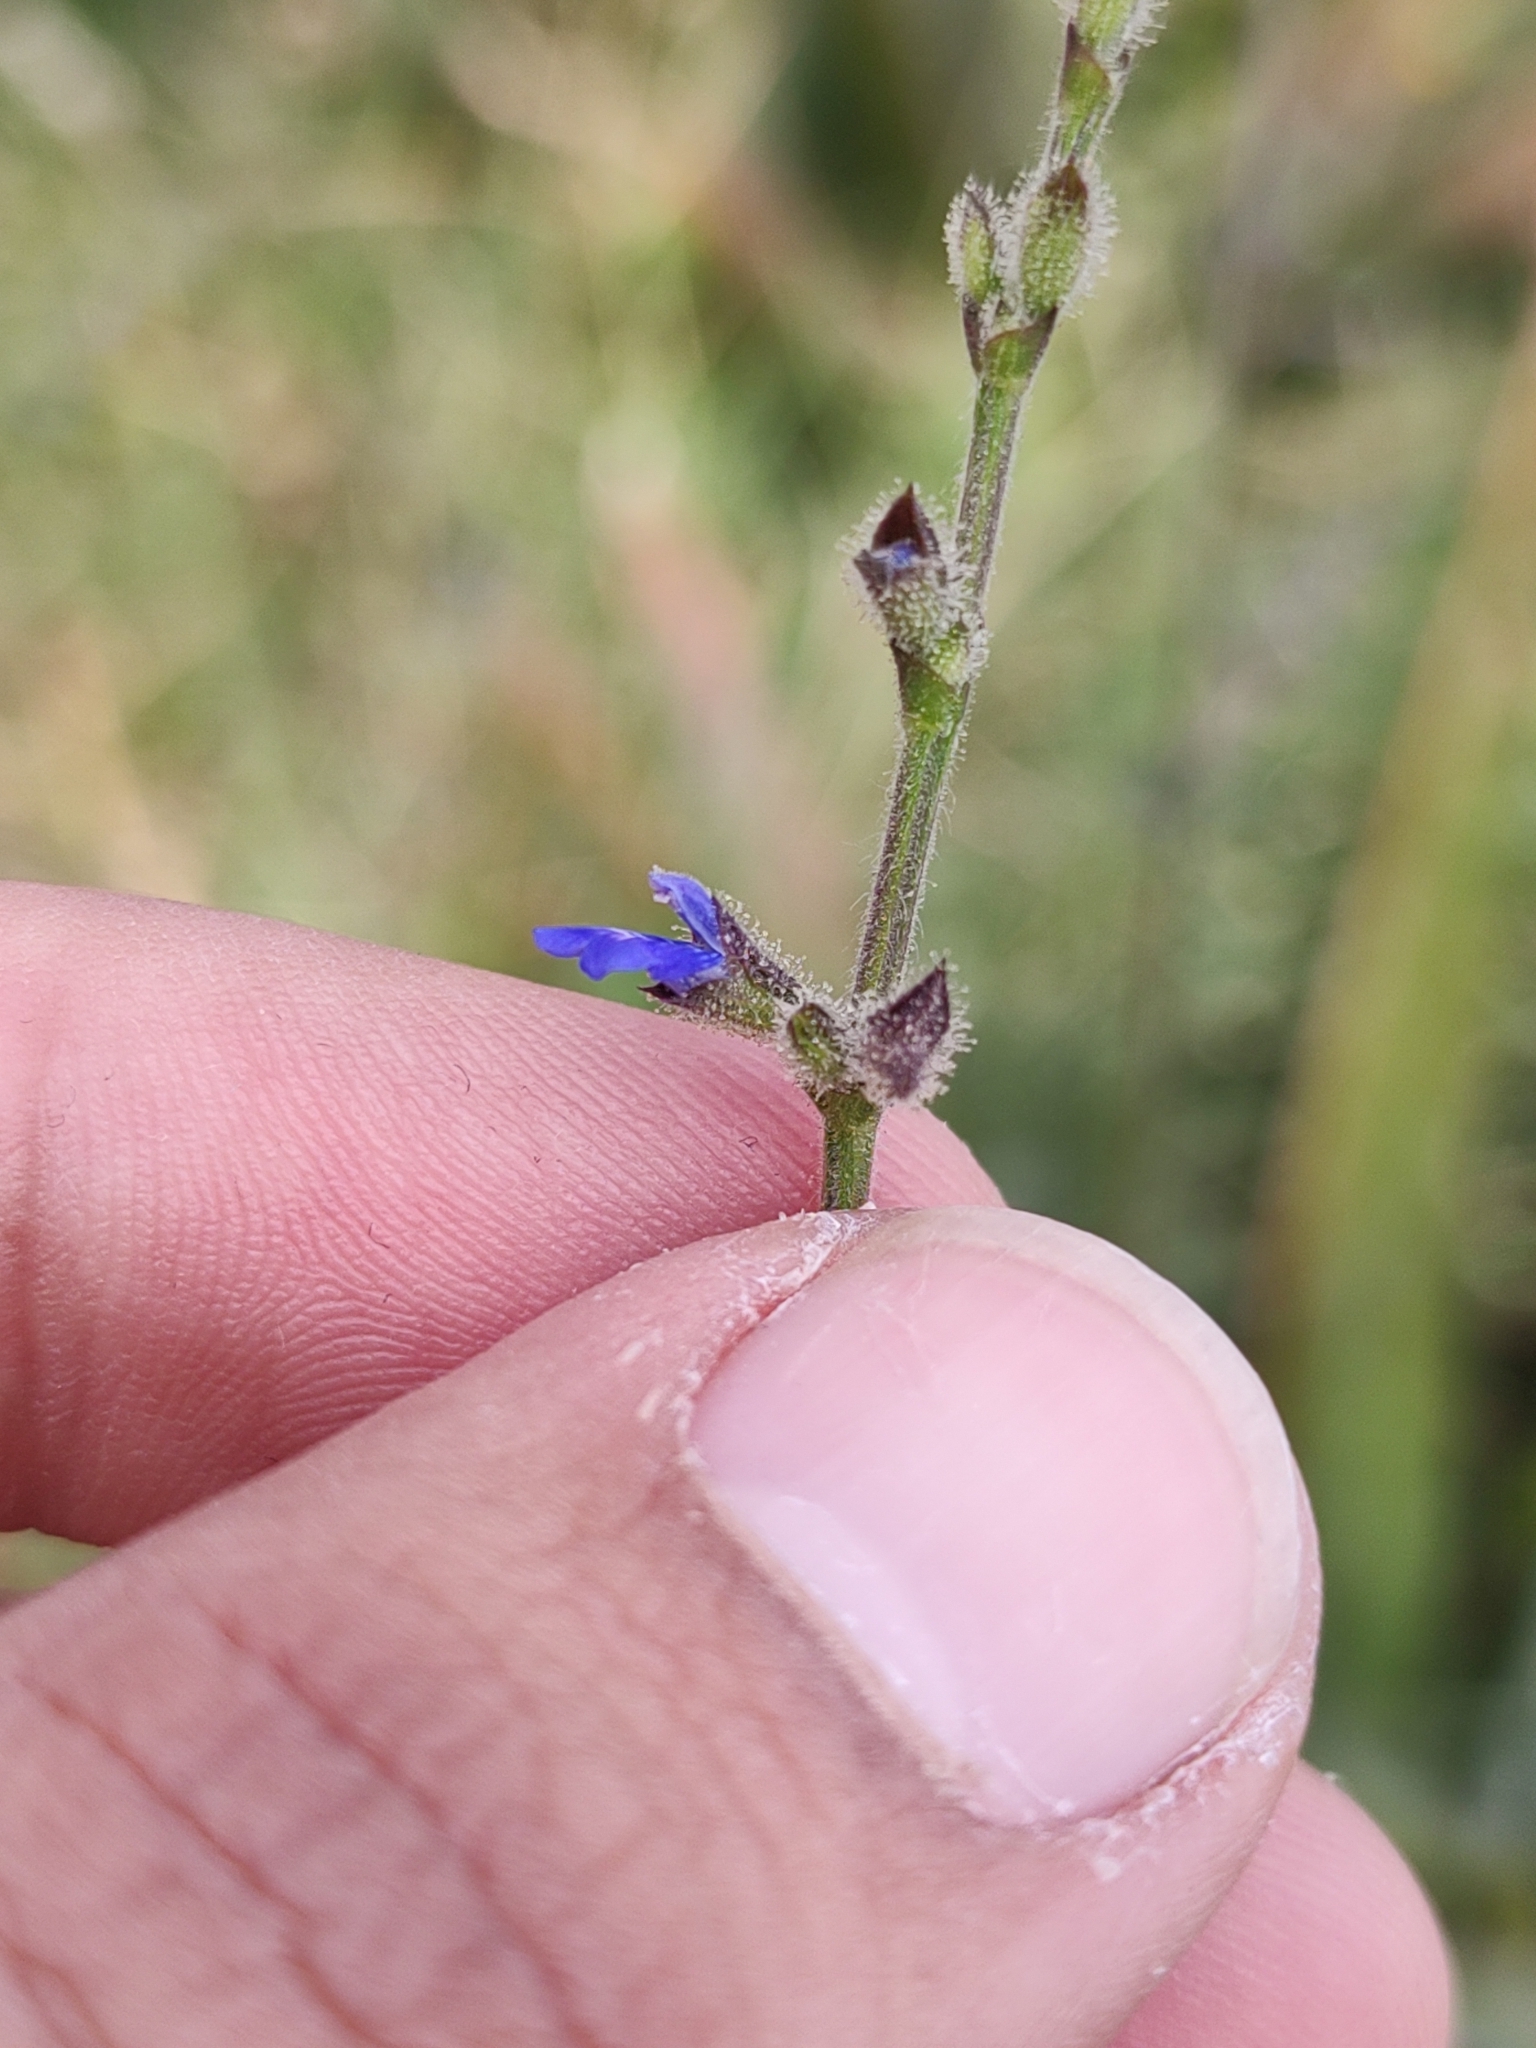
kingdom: Plantae
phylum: Tracheophyta
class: Magnoliopsida
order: Lamiales
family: Lamiaceae
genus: Salvia
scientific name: Salvia misella
